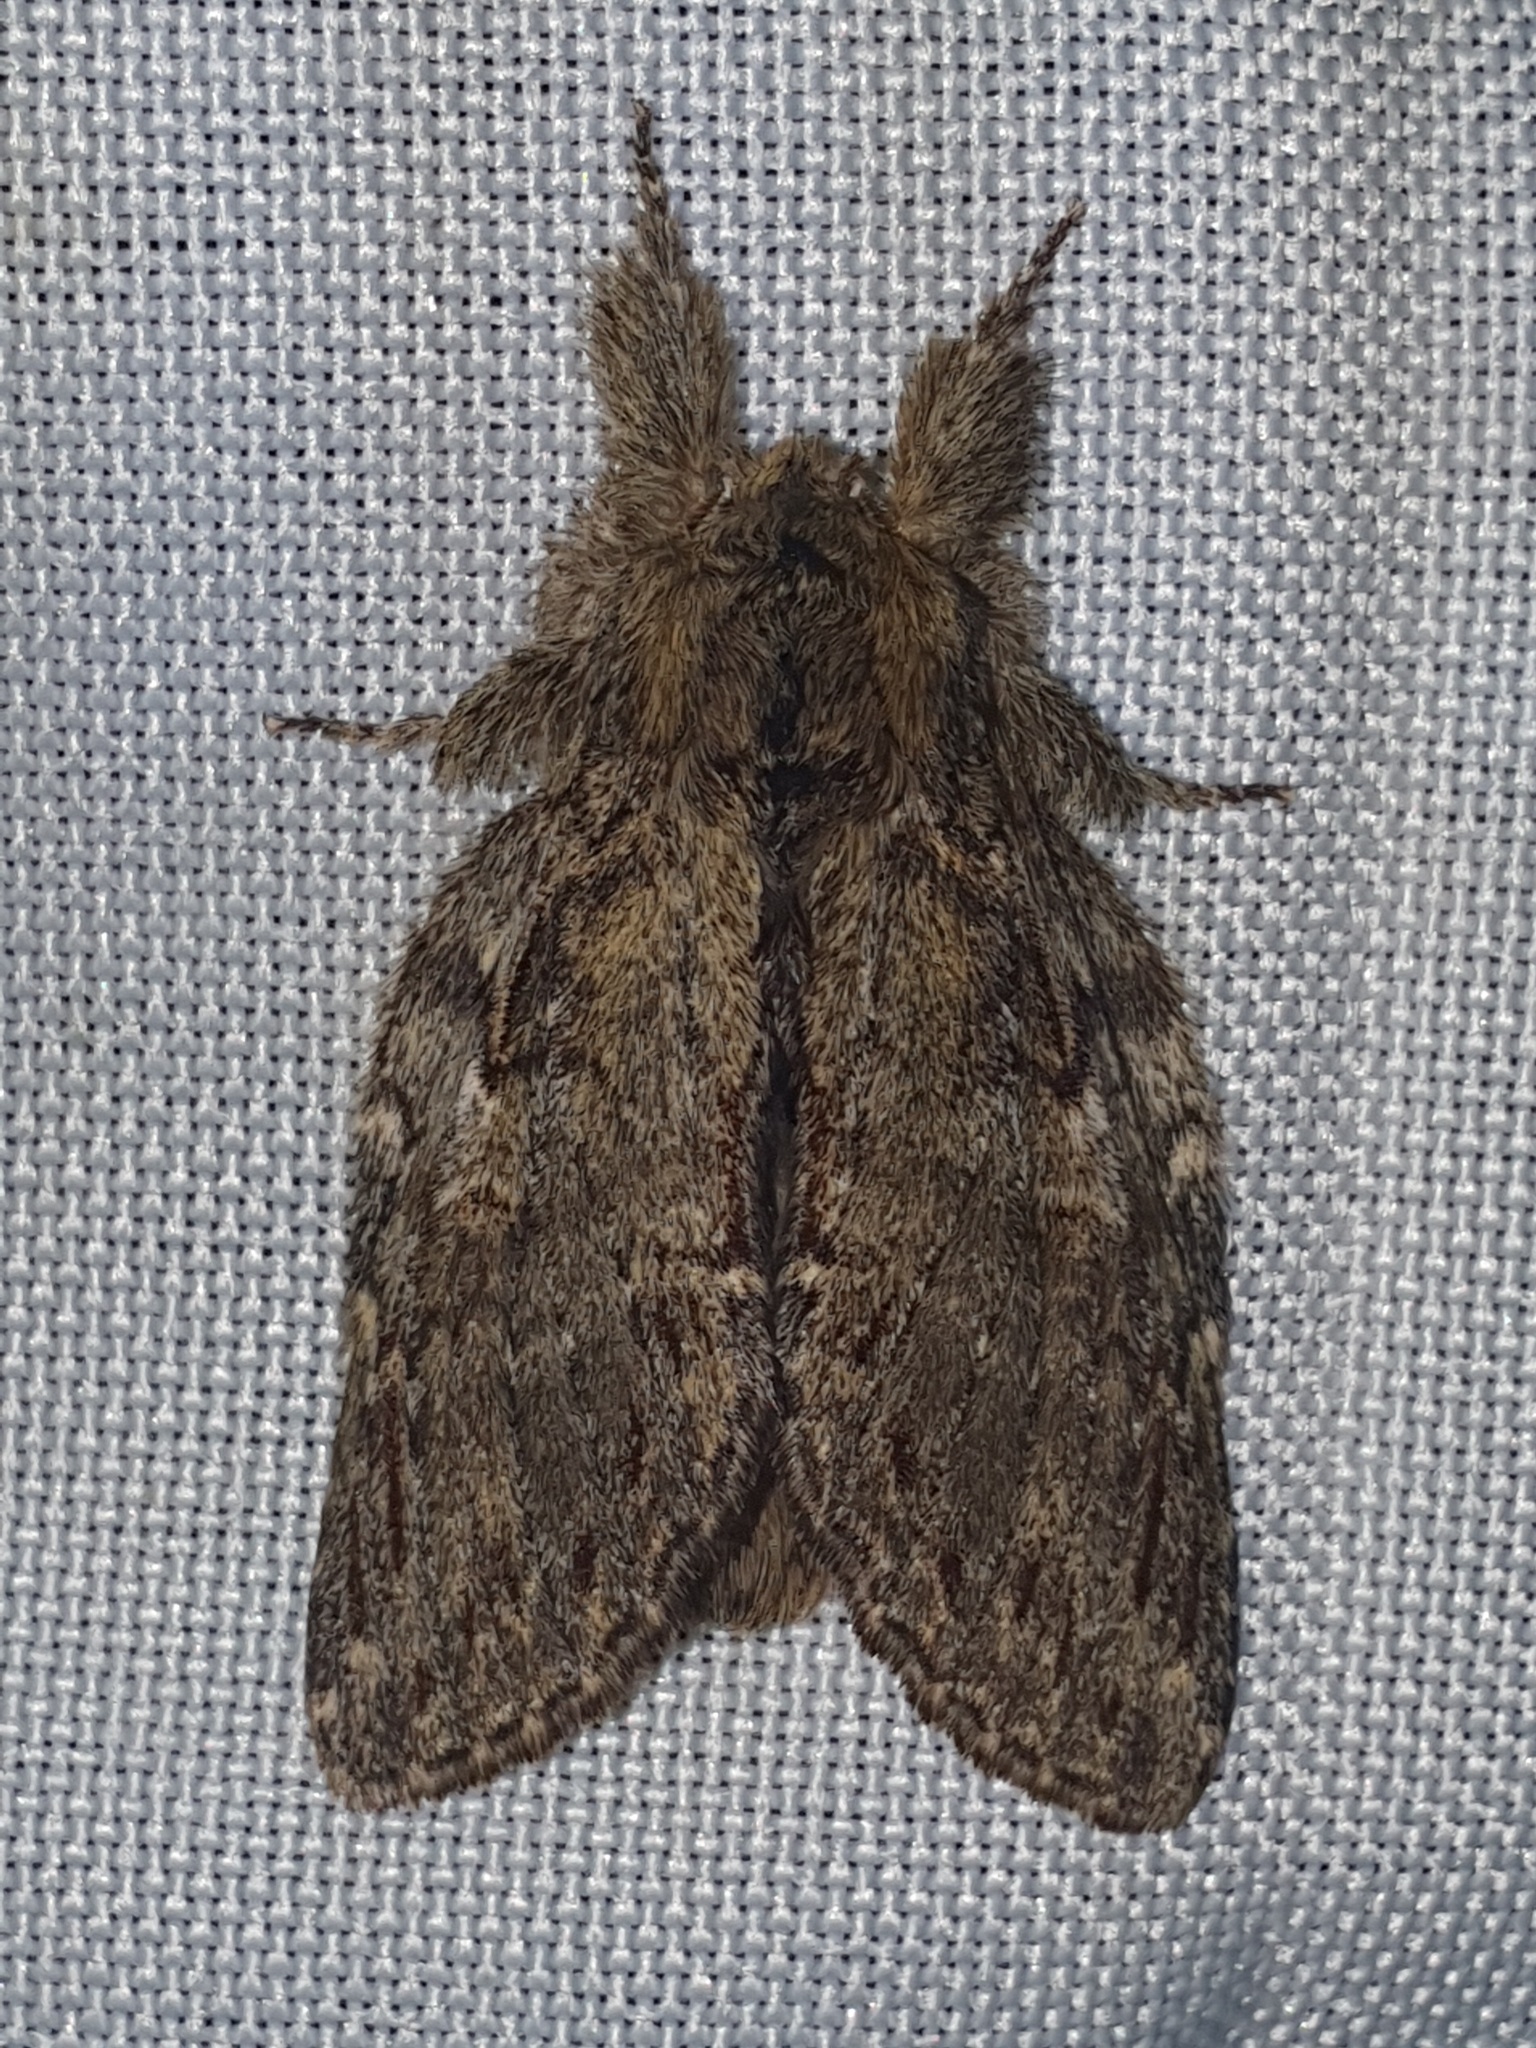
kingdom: Animalia
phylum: Arthropoda
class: Insecta
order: Lepidoptera
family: Notodontidae
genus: Peridea
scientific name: Peridea anceps
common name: Great prominent
